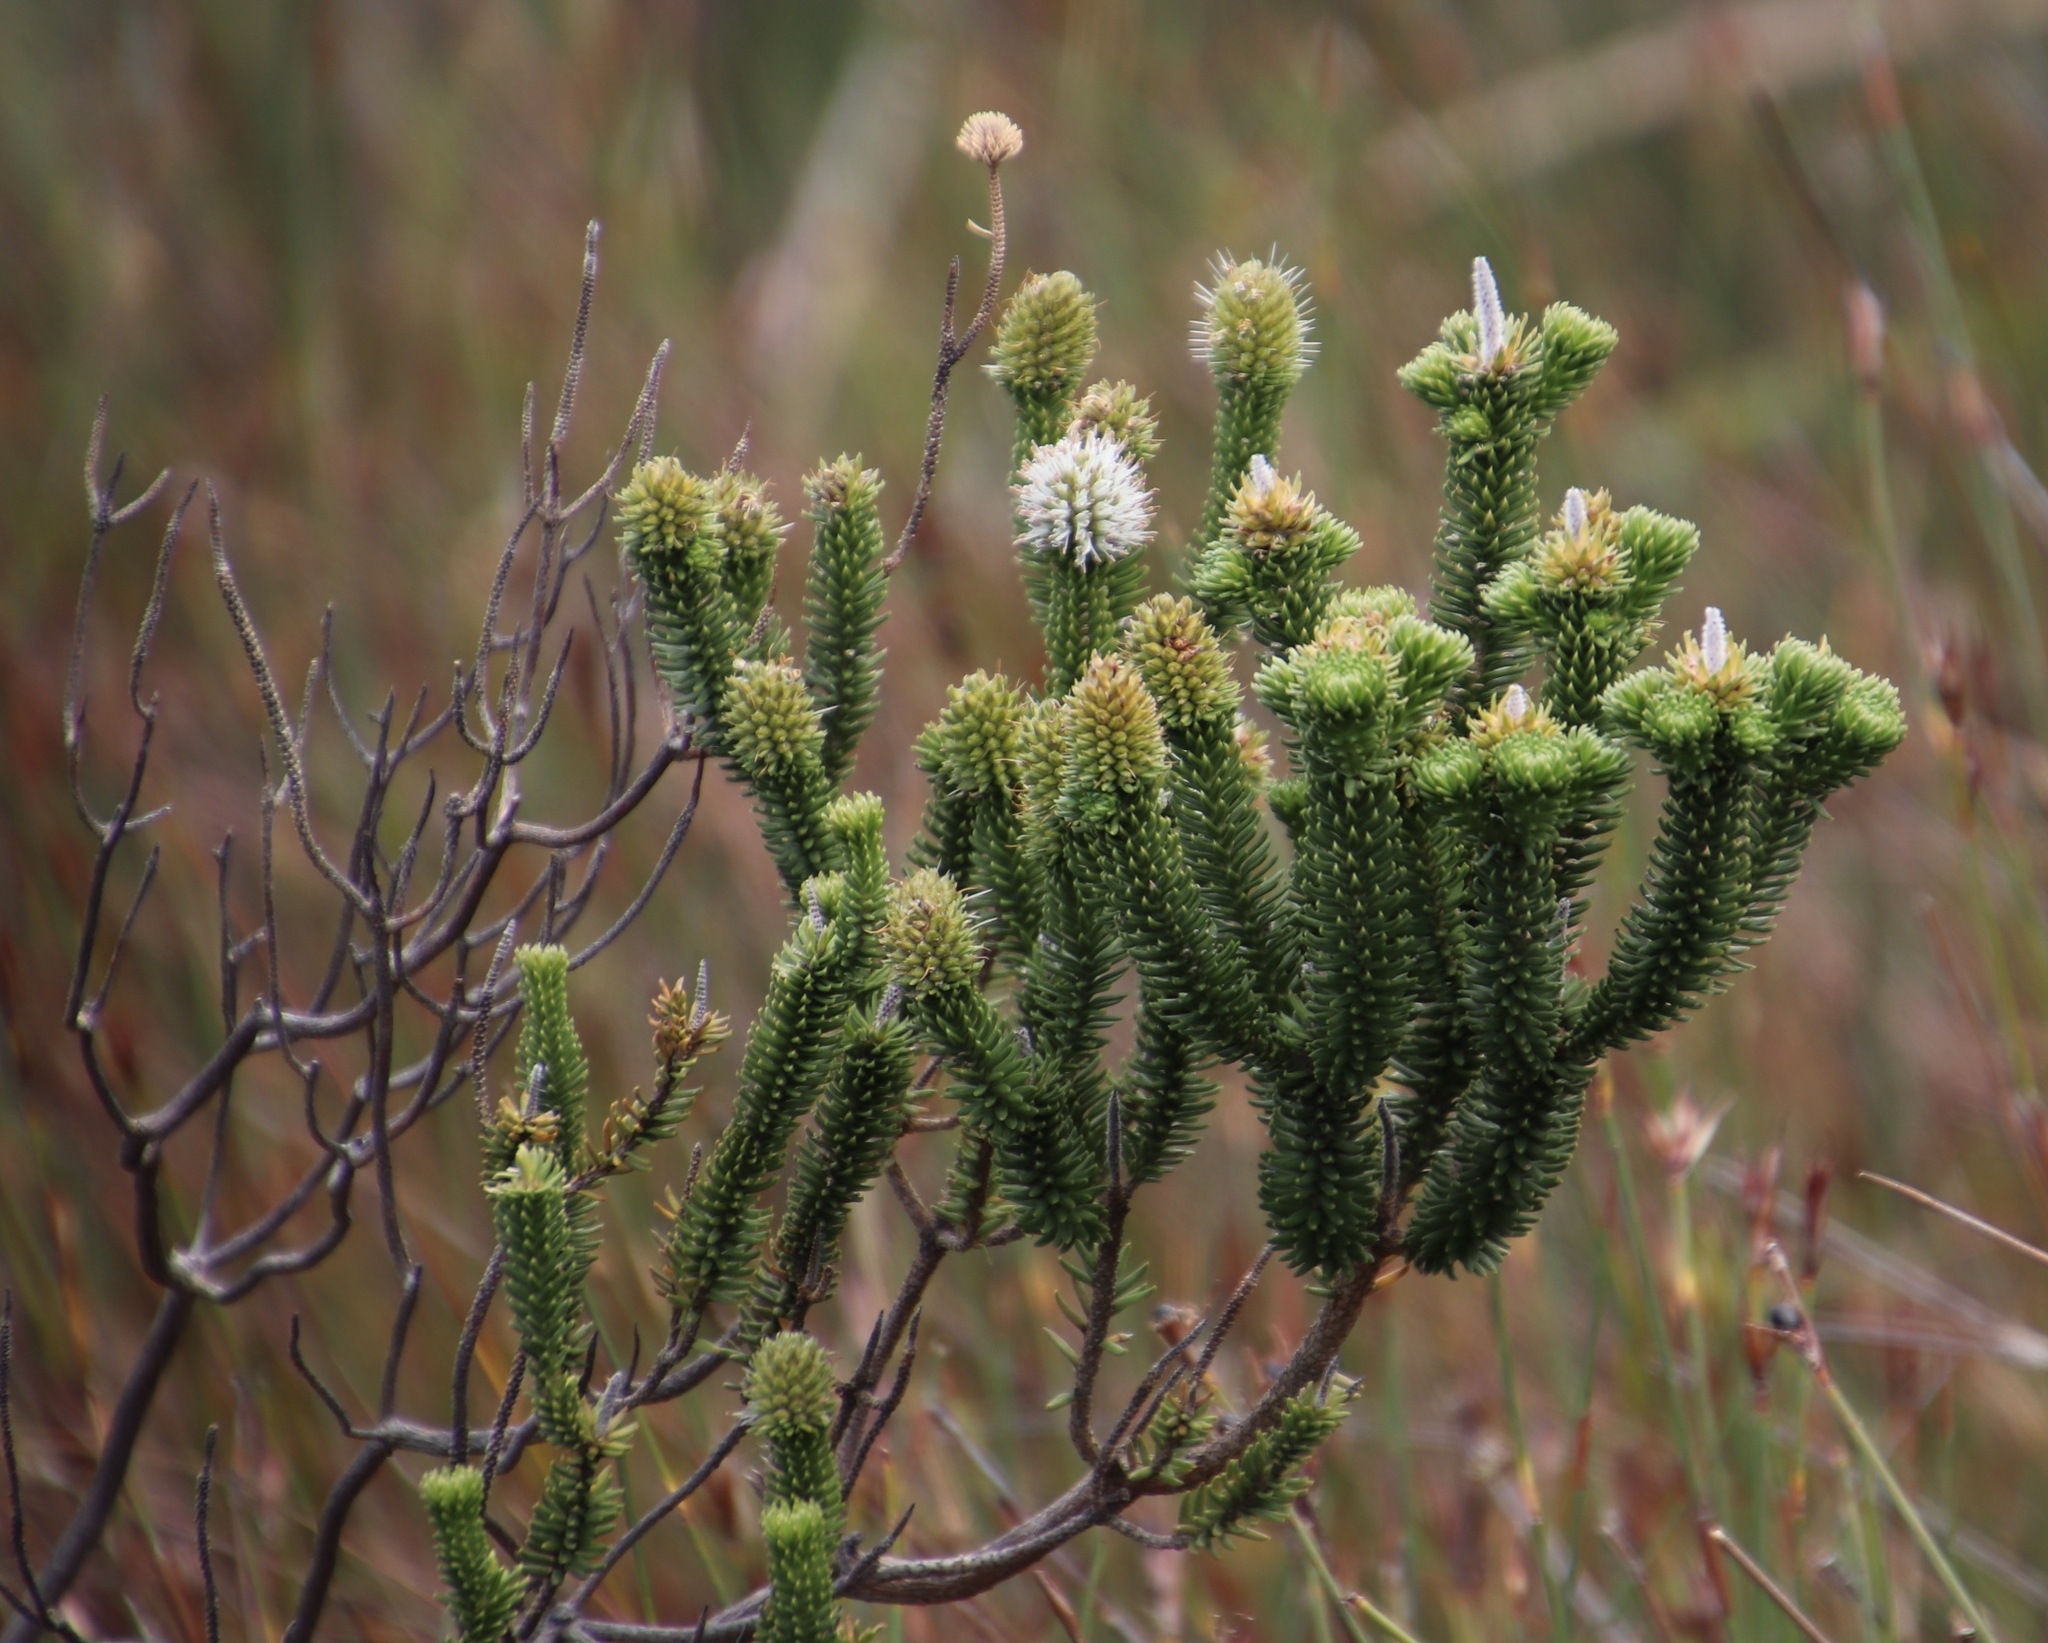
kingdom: Plantae
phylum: Tracheophyta
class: Magnoliopsida
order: Lamiales
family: Stilbaceae
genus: Stilbe
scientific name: Stilbe vestita
